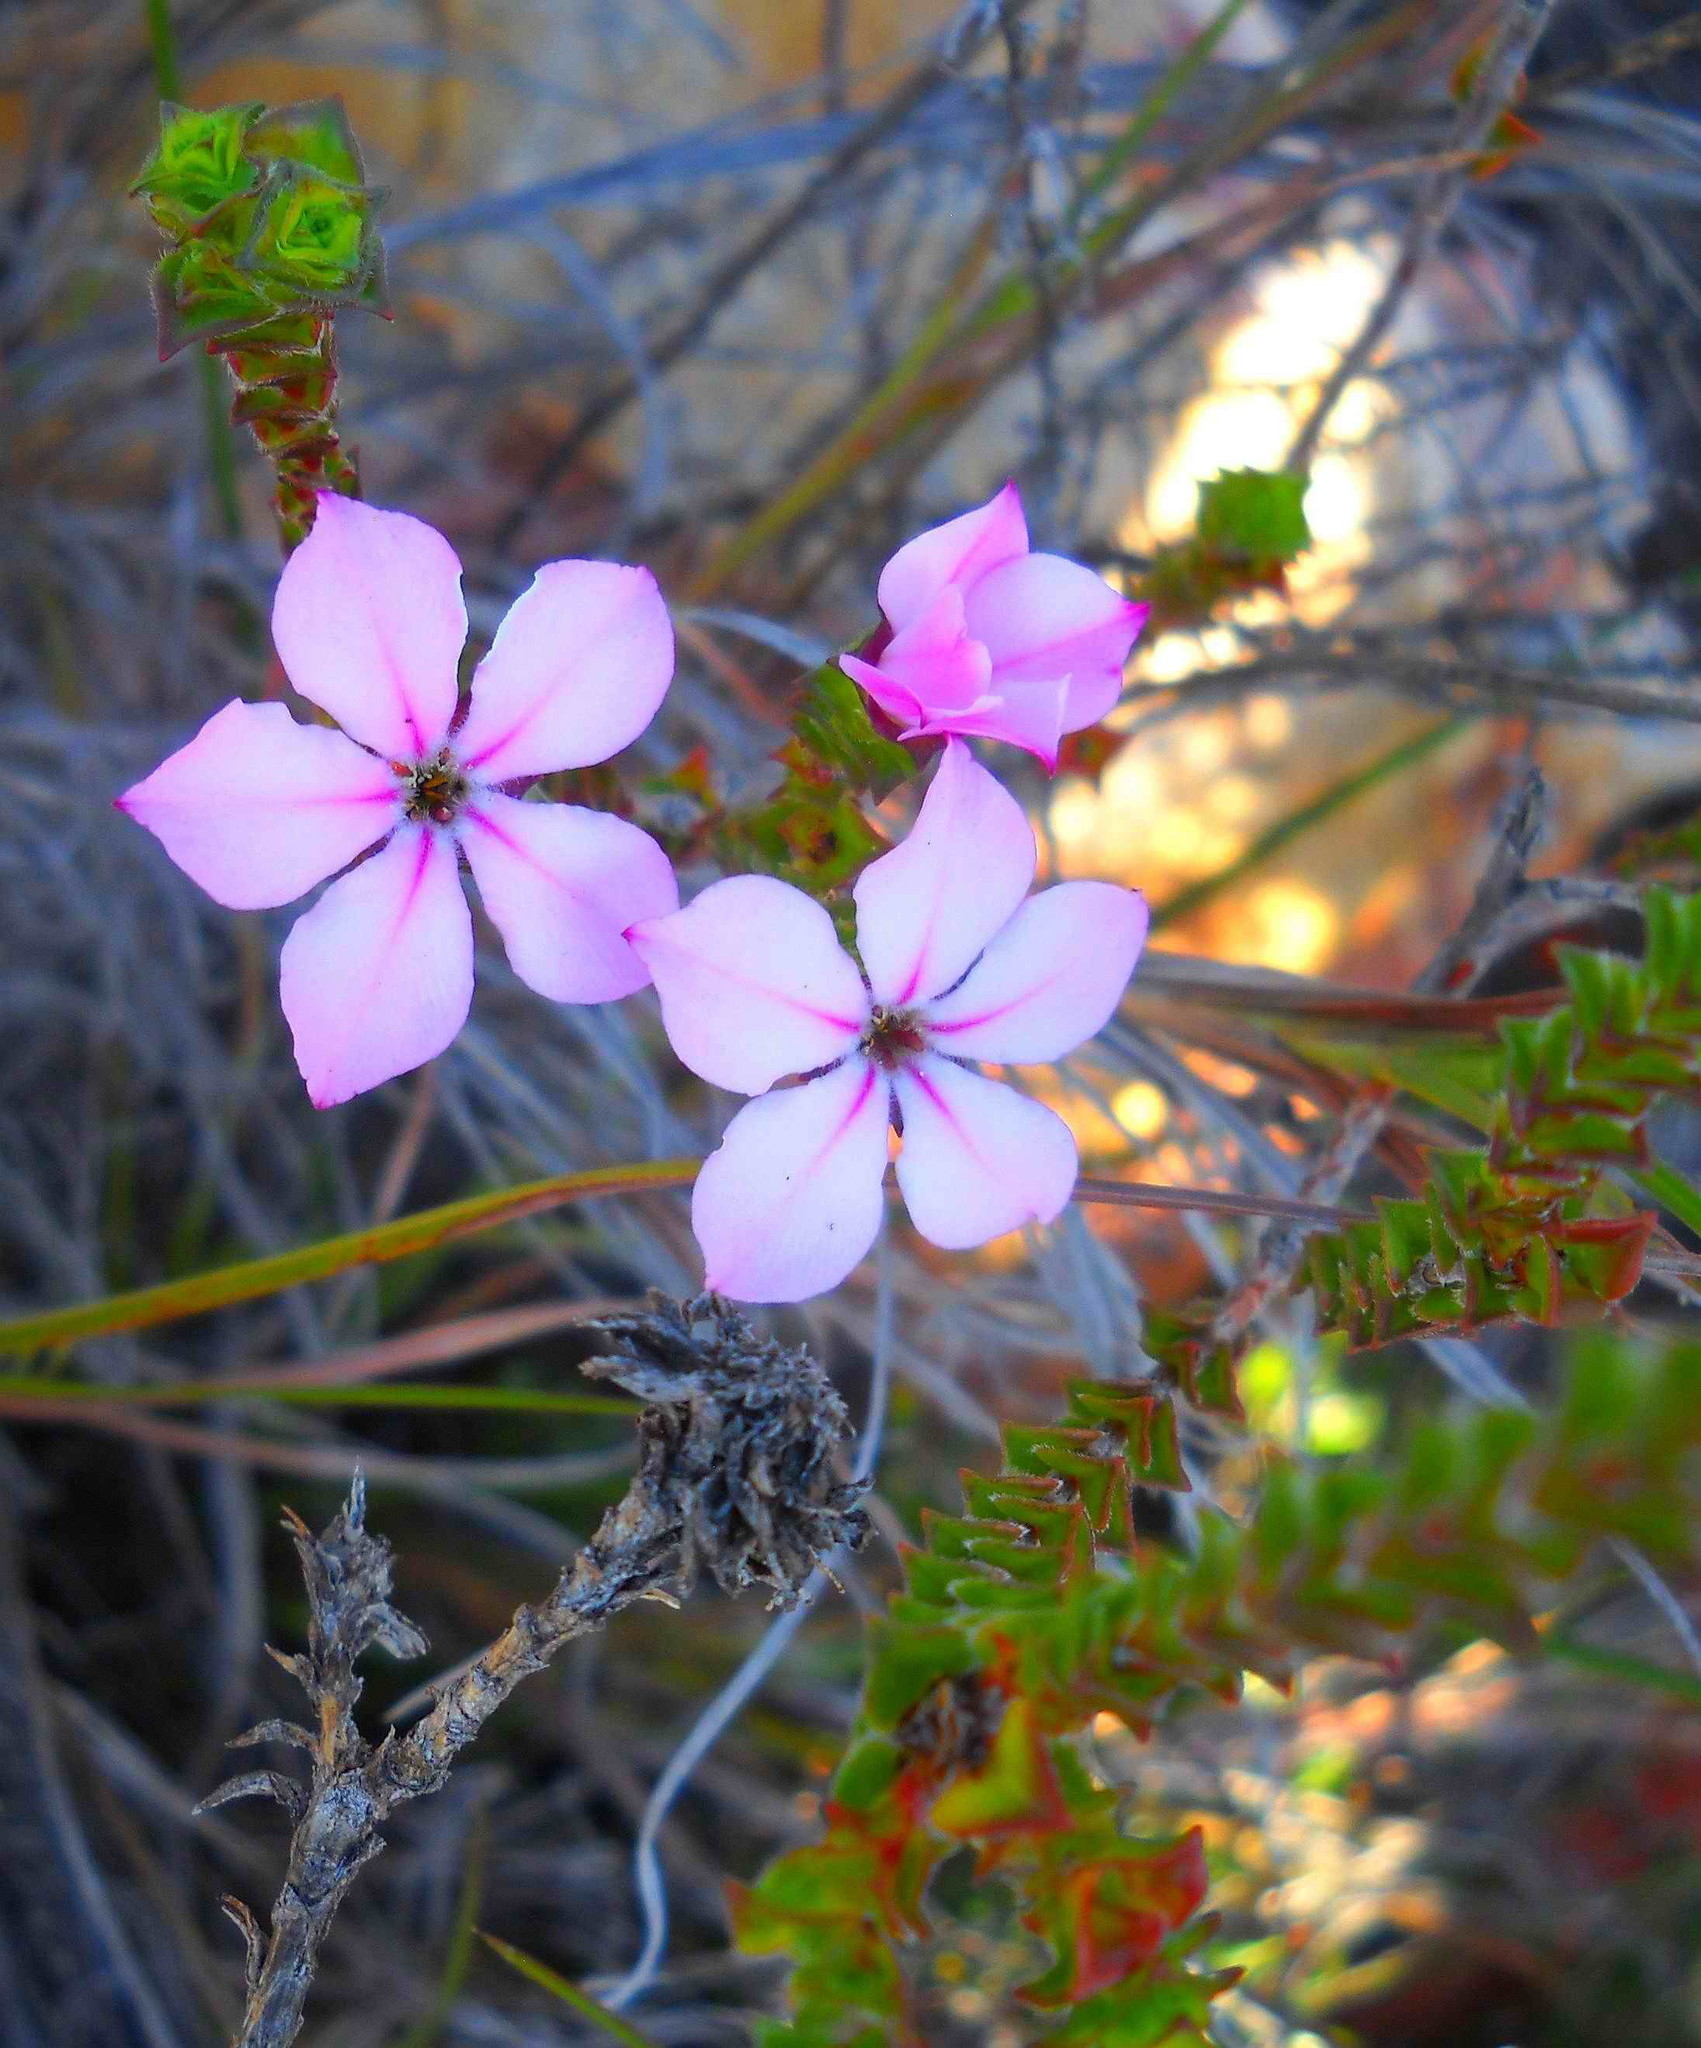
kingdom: Plantae
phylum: Tracheophyta
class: Magnoliopsida
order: Sapindales
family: Rutaceae
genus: Acmadenia
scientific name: Acmadenia tetragona
